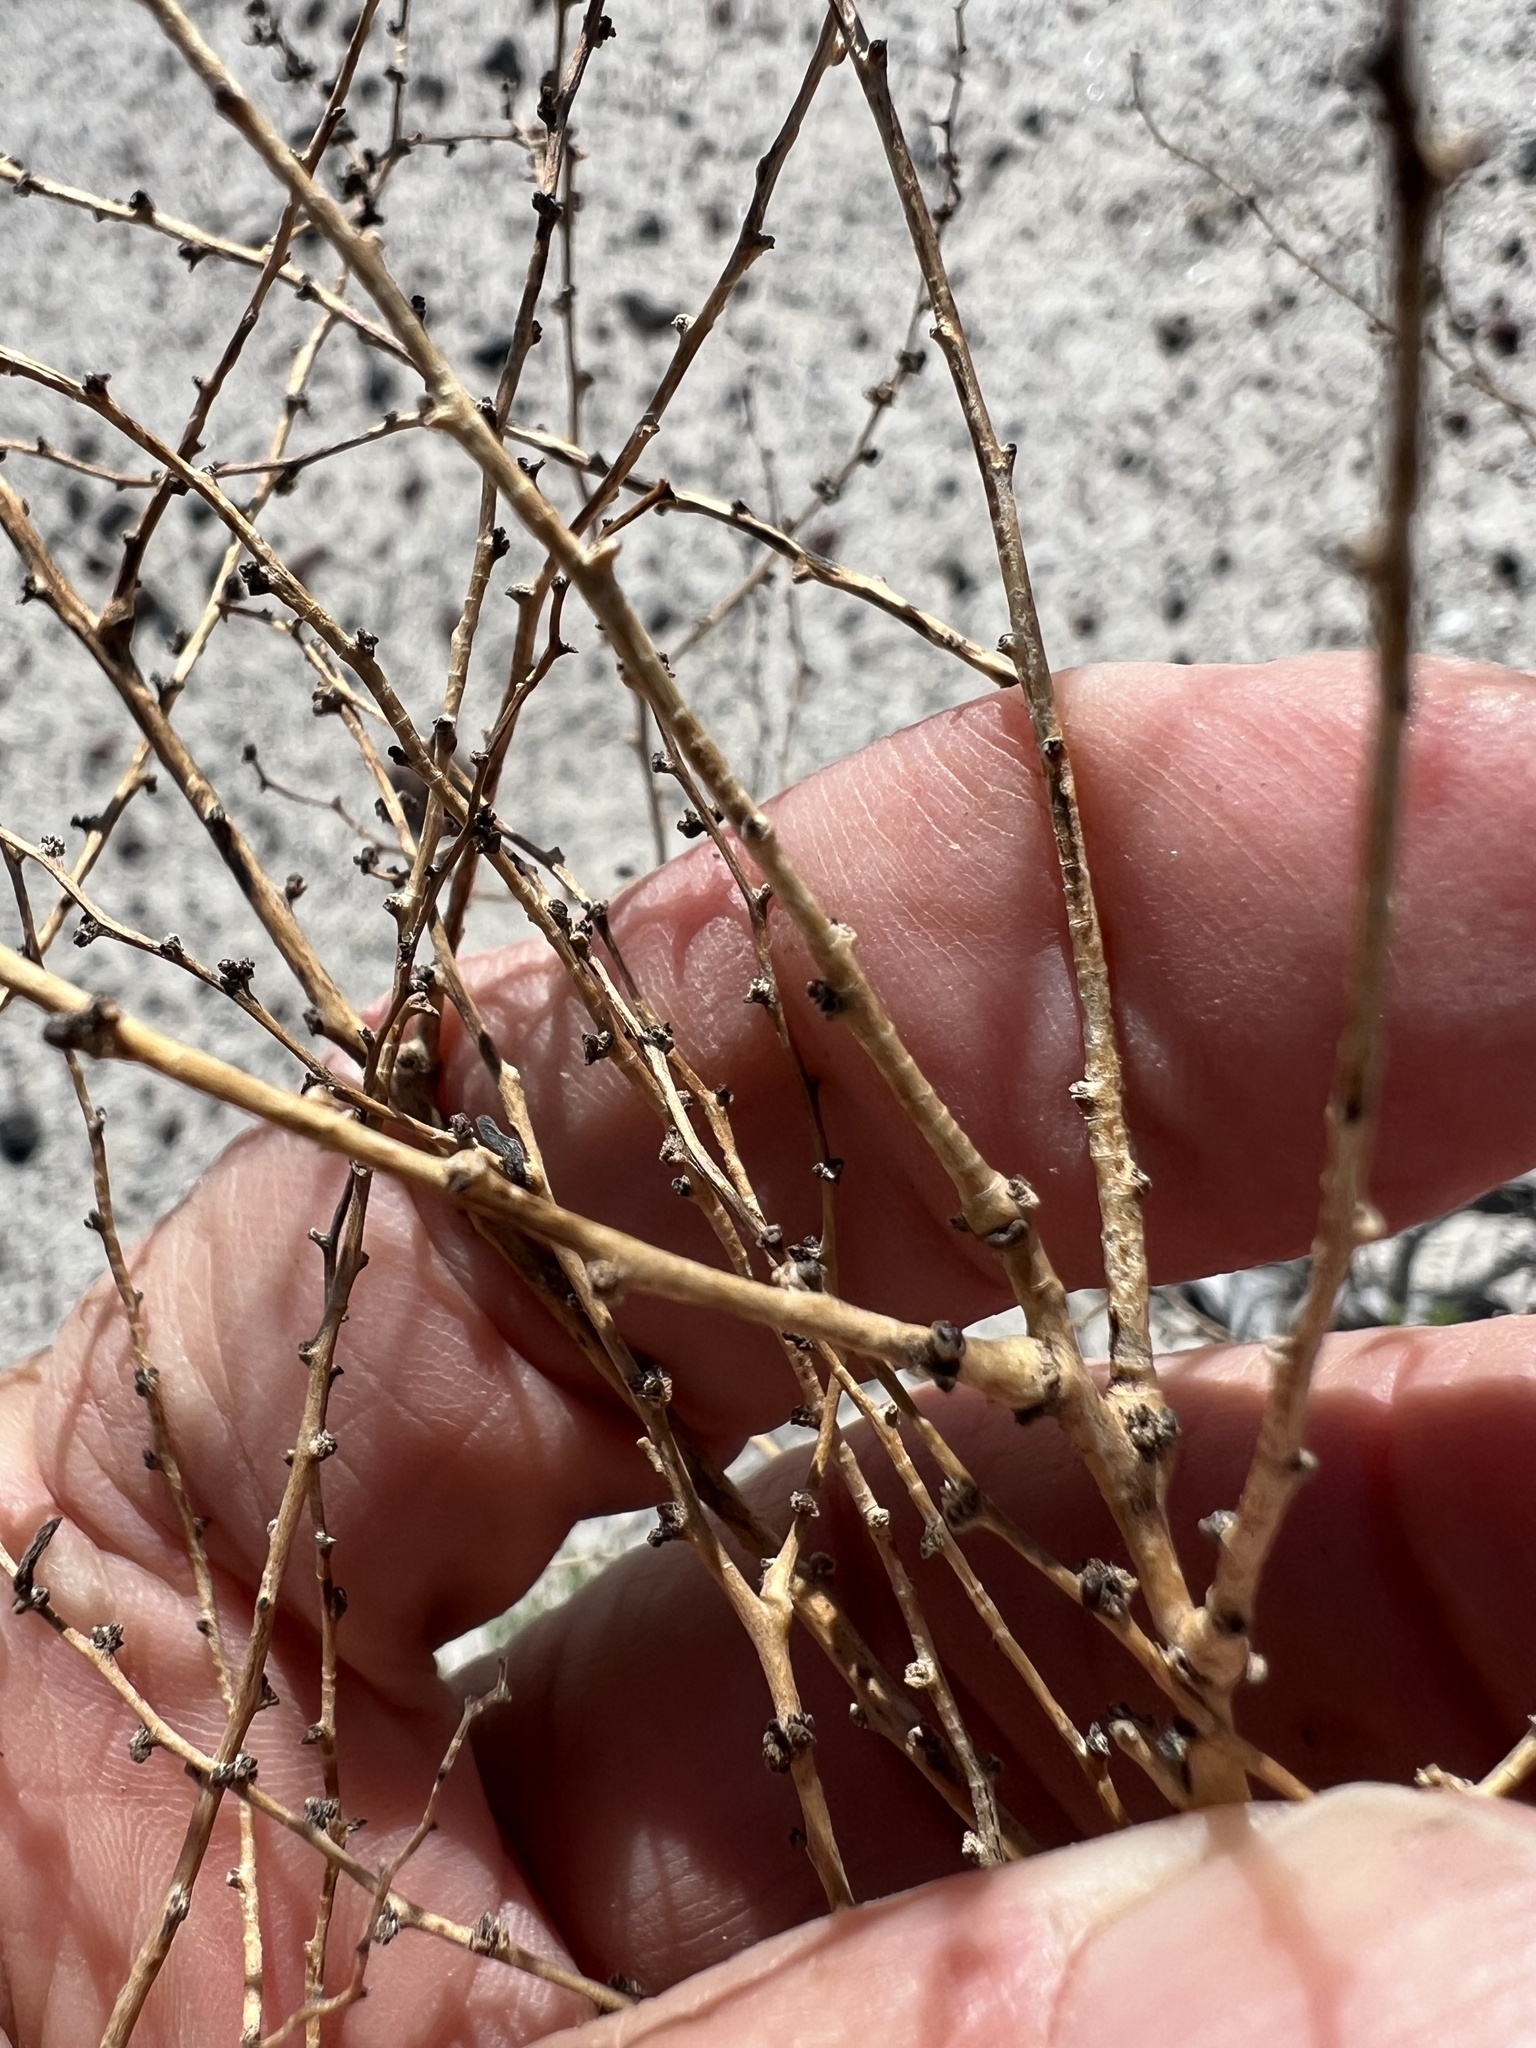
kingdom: Plantae
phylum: Tracheophyta
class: Magnoliopsida
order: Caryophyllales
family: Amaranthaceae
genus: Suaeda
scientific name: Suaeda nigra
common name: Bush seepweed
